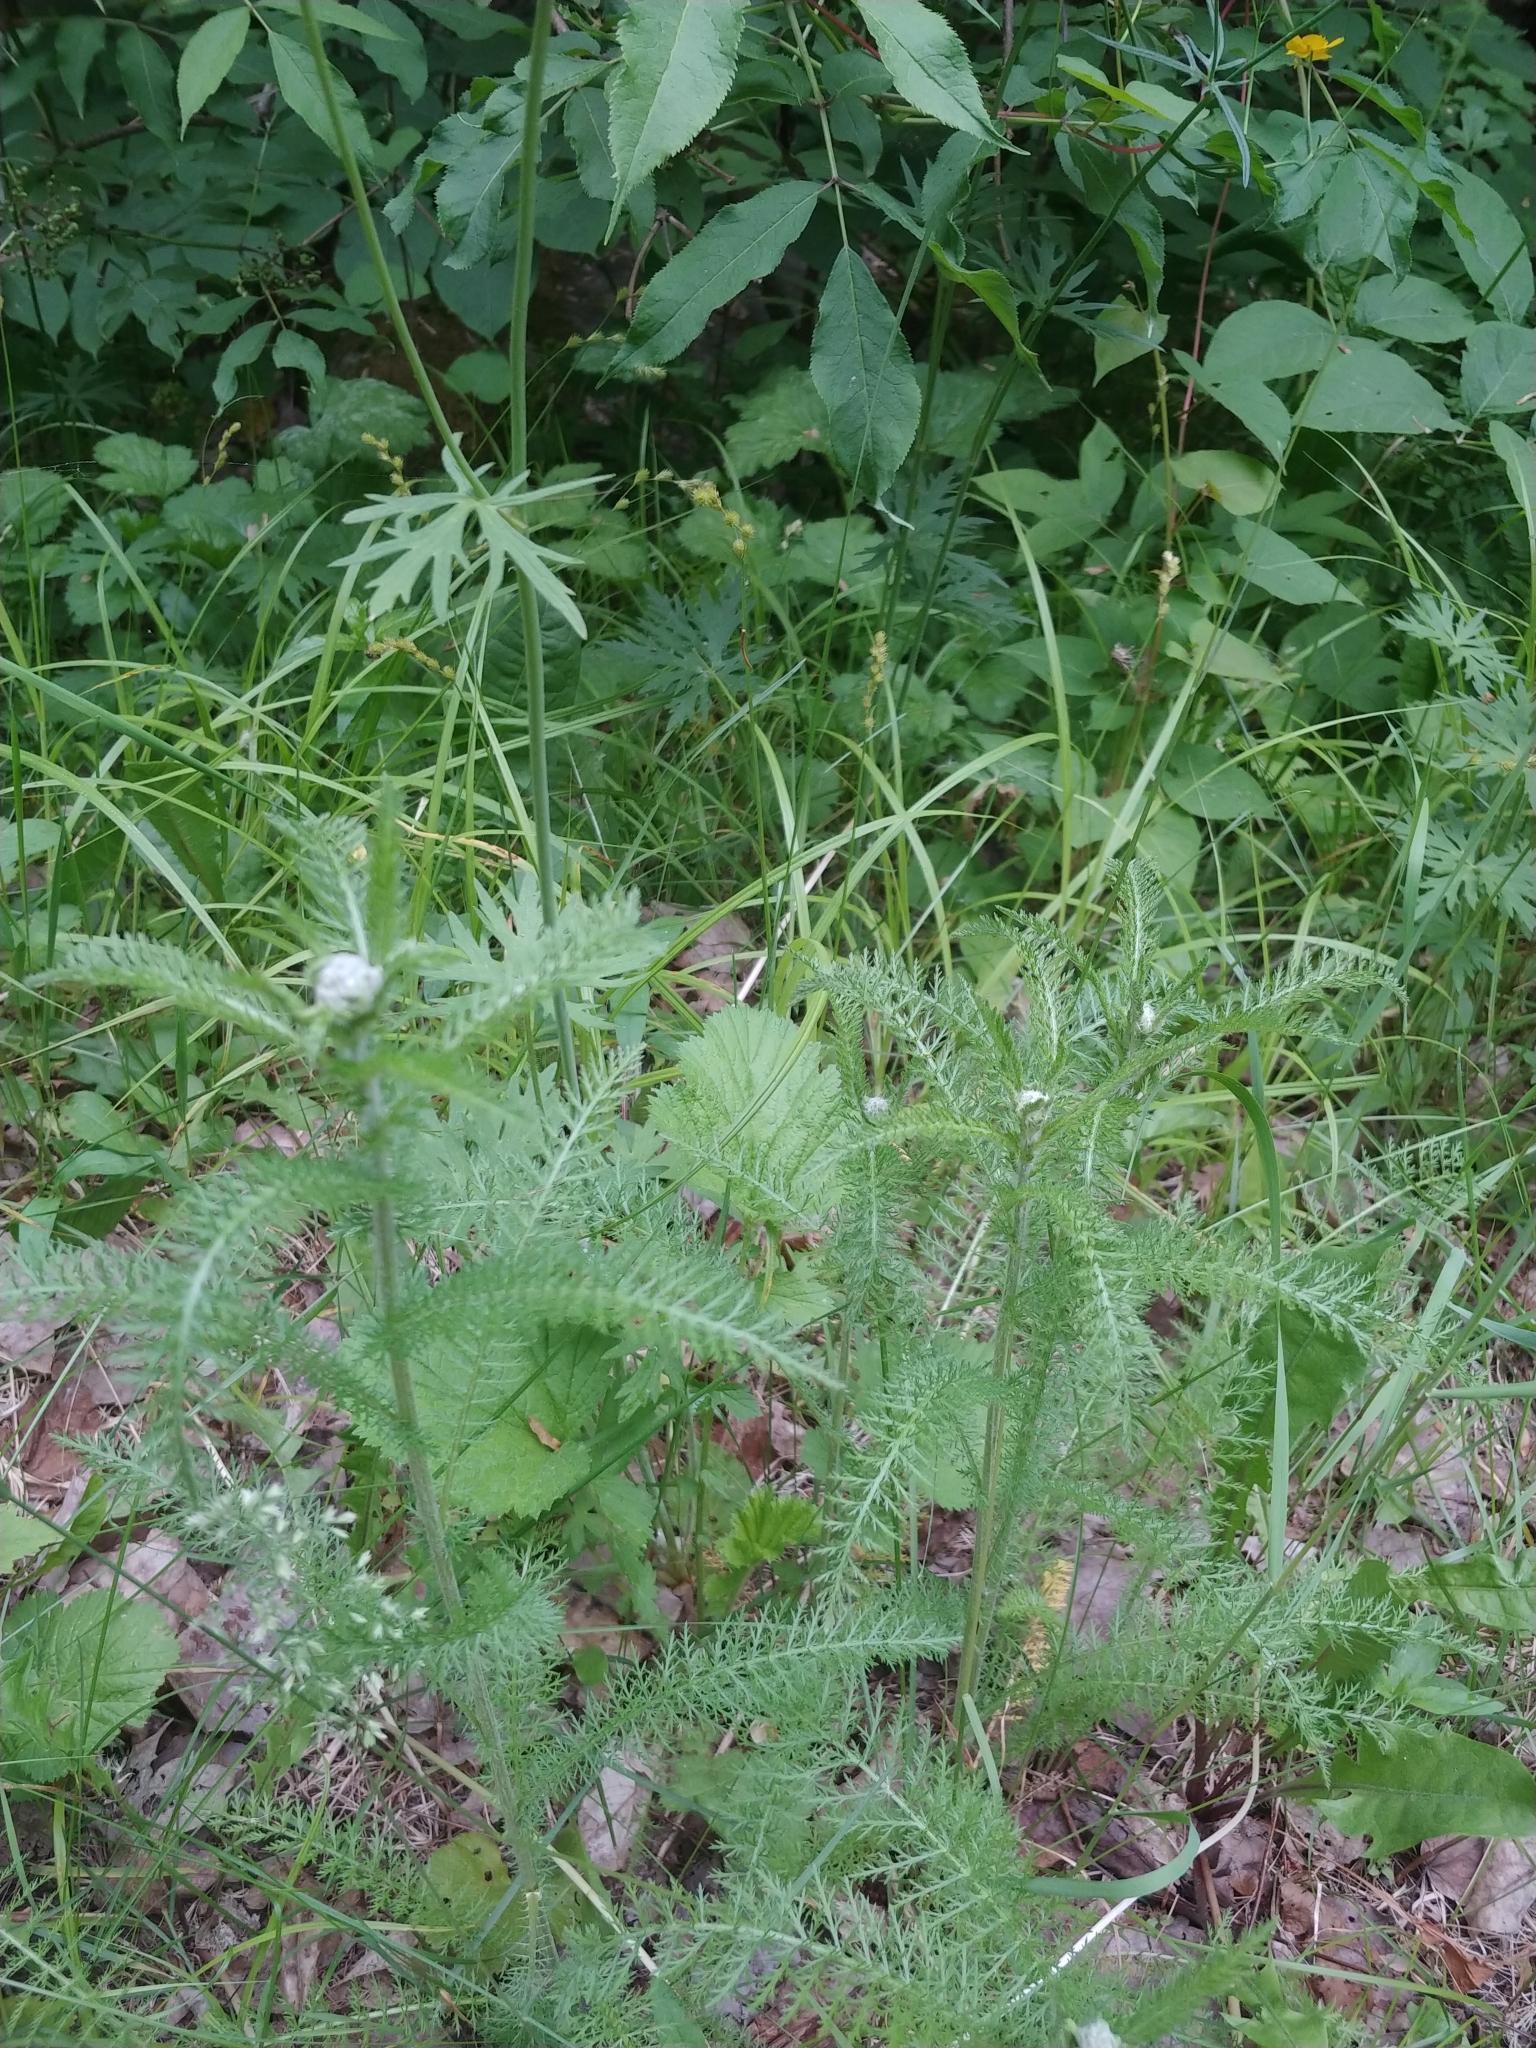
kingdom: Plantae
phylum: Tracheophyta
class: Magnoliopsida
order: Asterales
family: Asteraceae
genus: Achillea
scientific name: Achillea millefolium
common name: Yarrow
